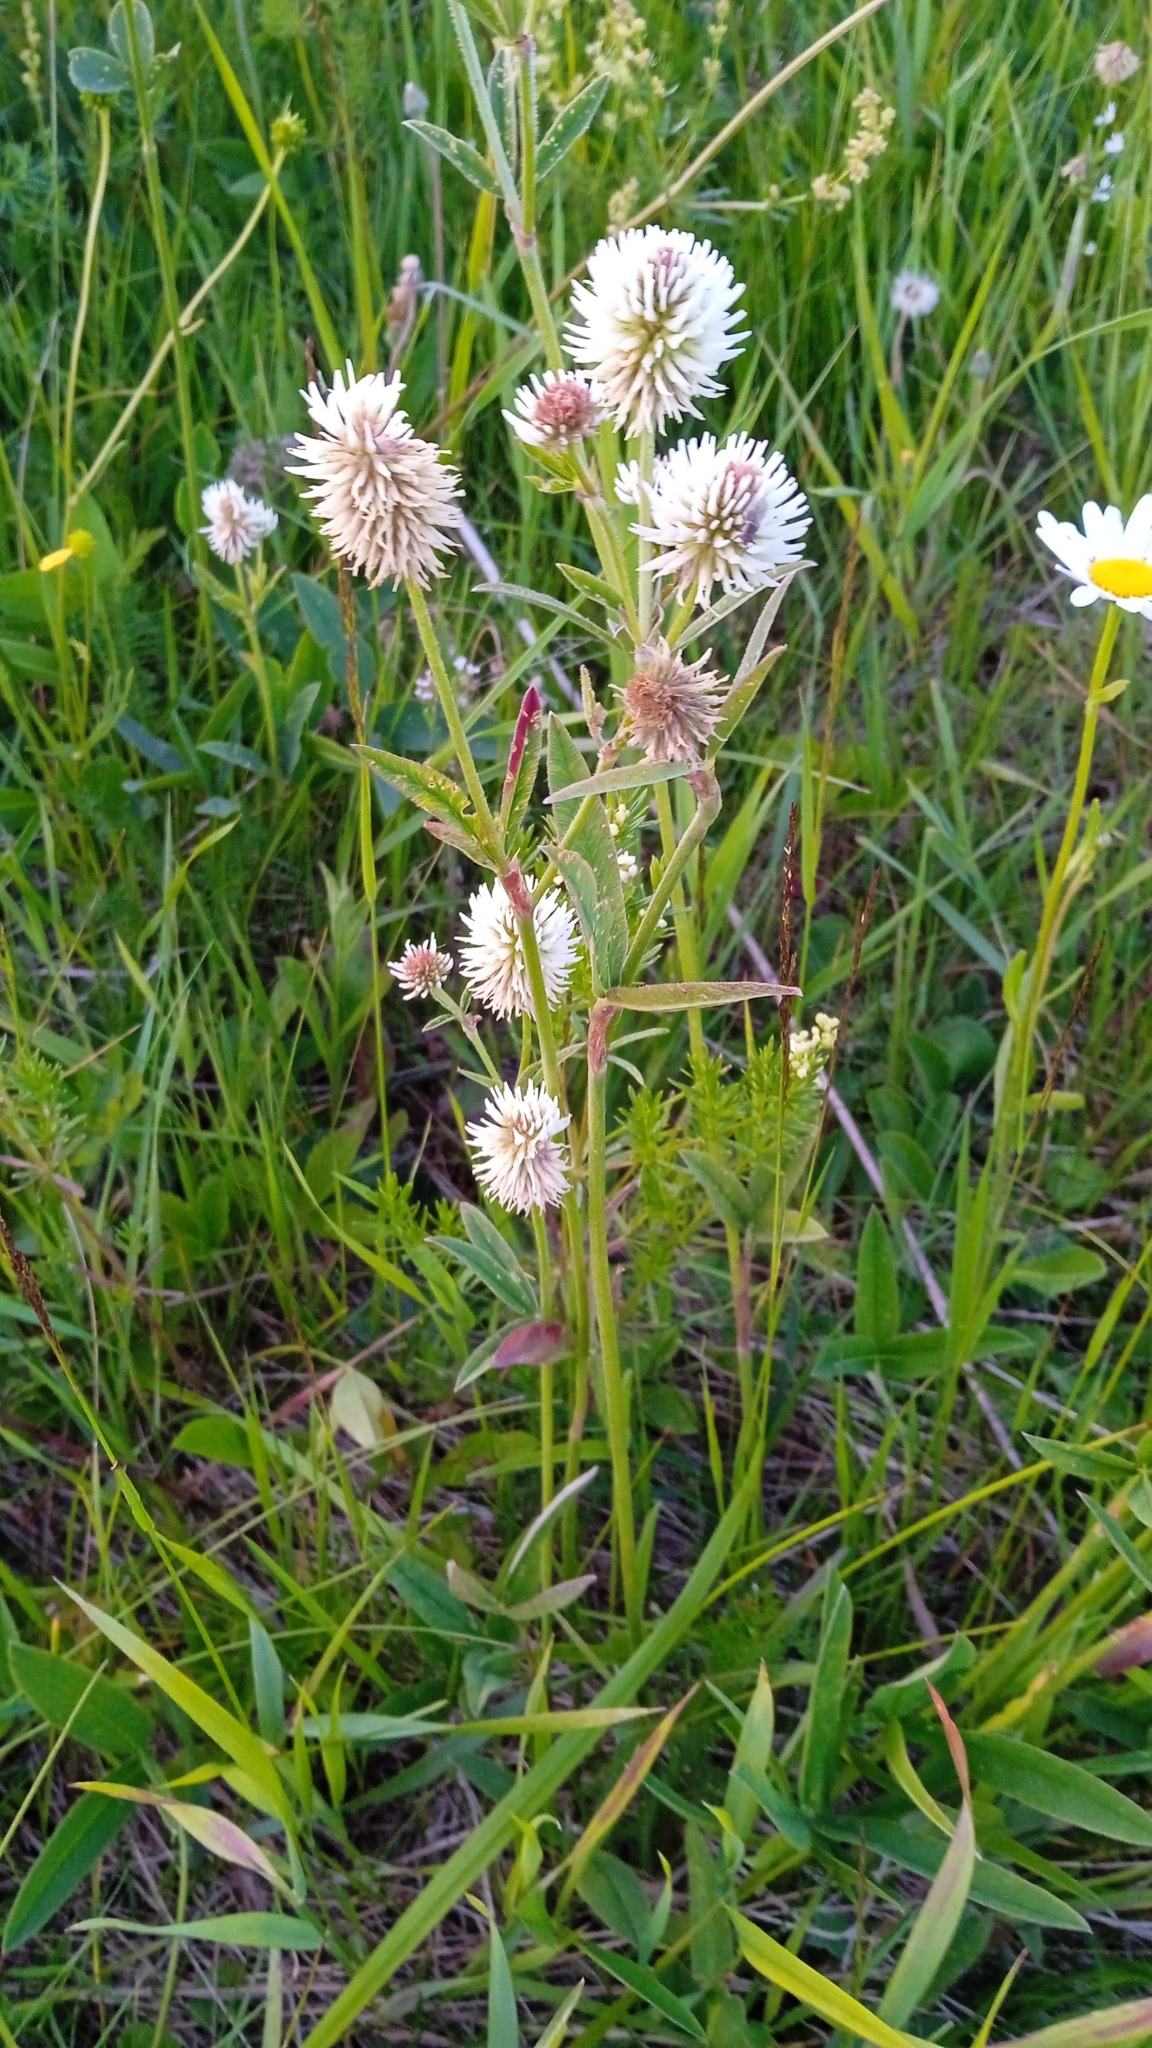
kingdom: Plantae
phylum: Tracheophyta
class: Magnoliopsida
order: Fabales
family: Fabaceae
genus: Trifolium
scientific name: Trifolium montanum
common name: Mountain clover
